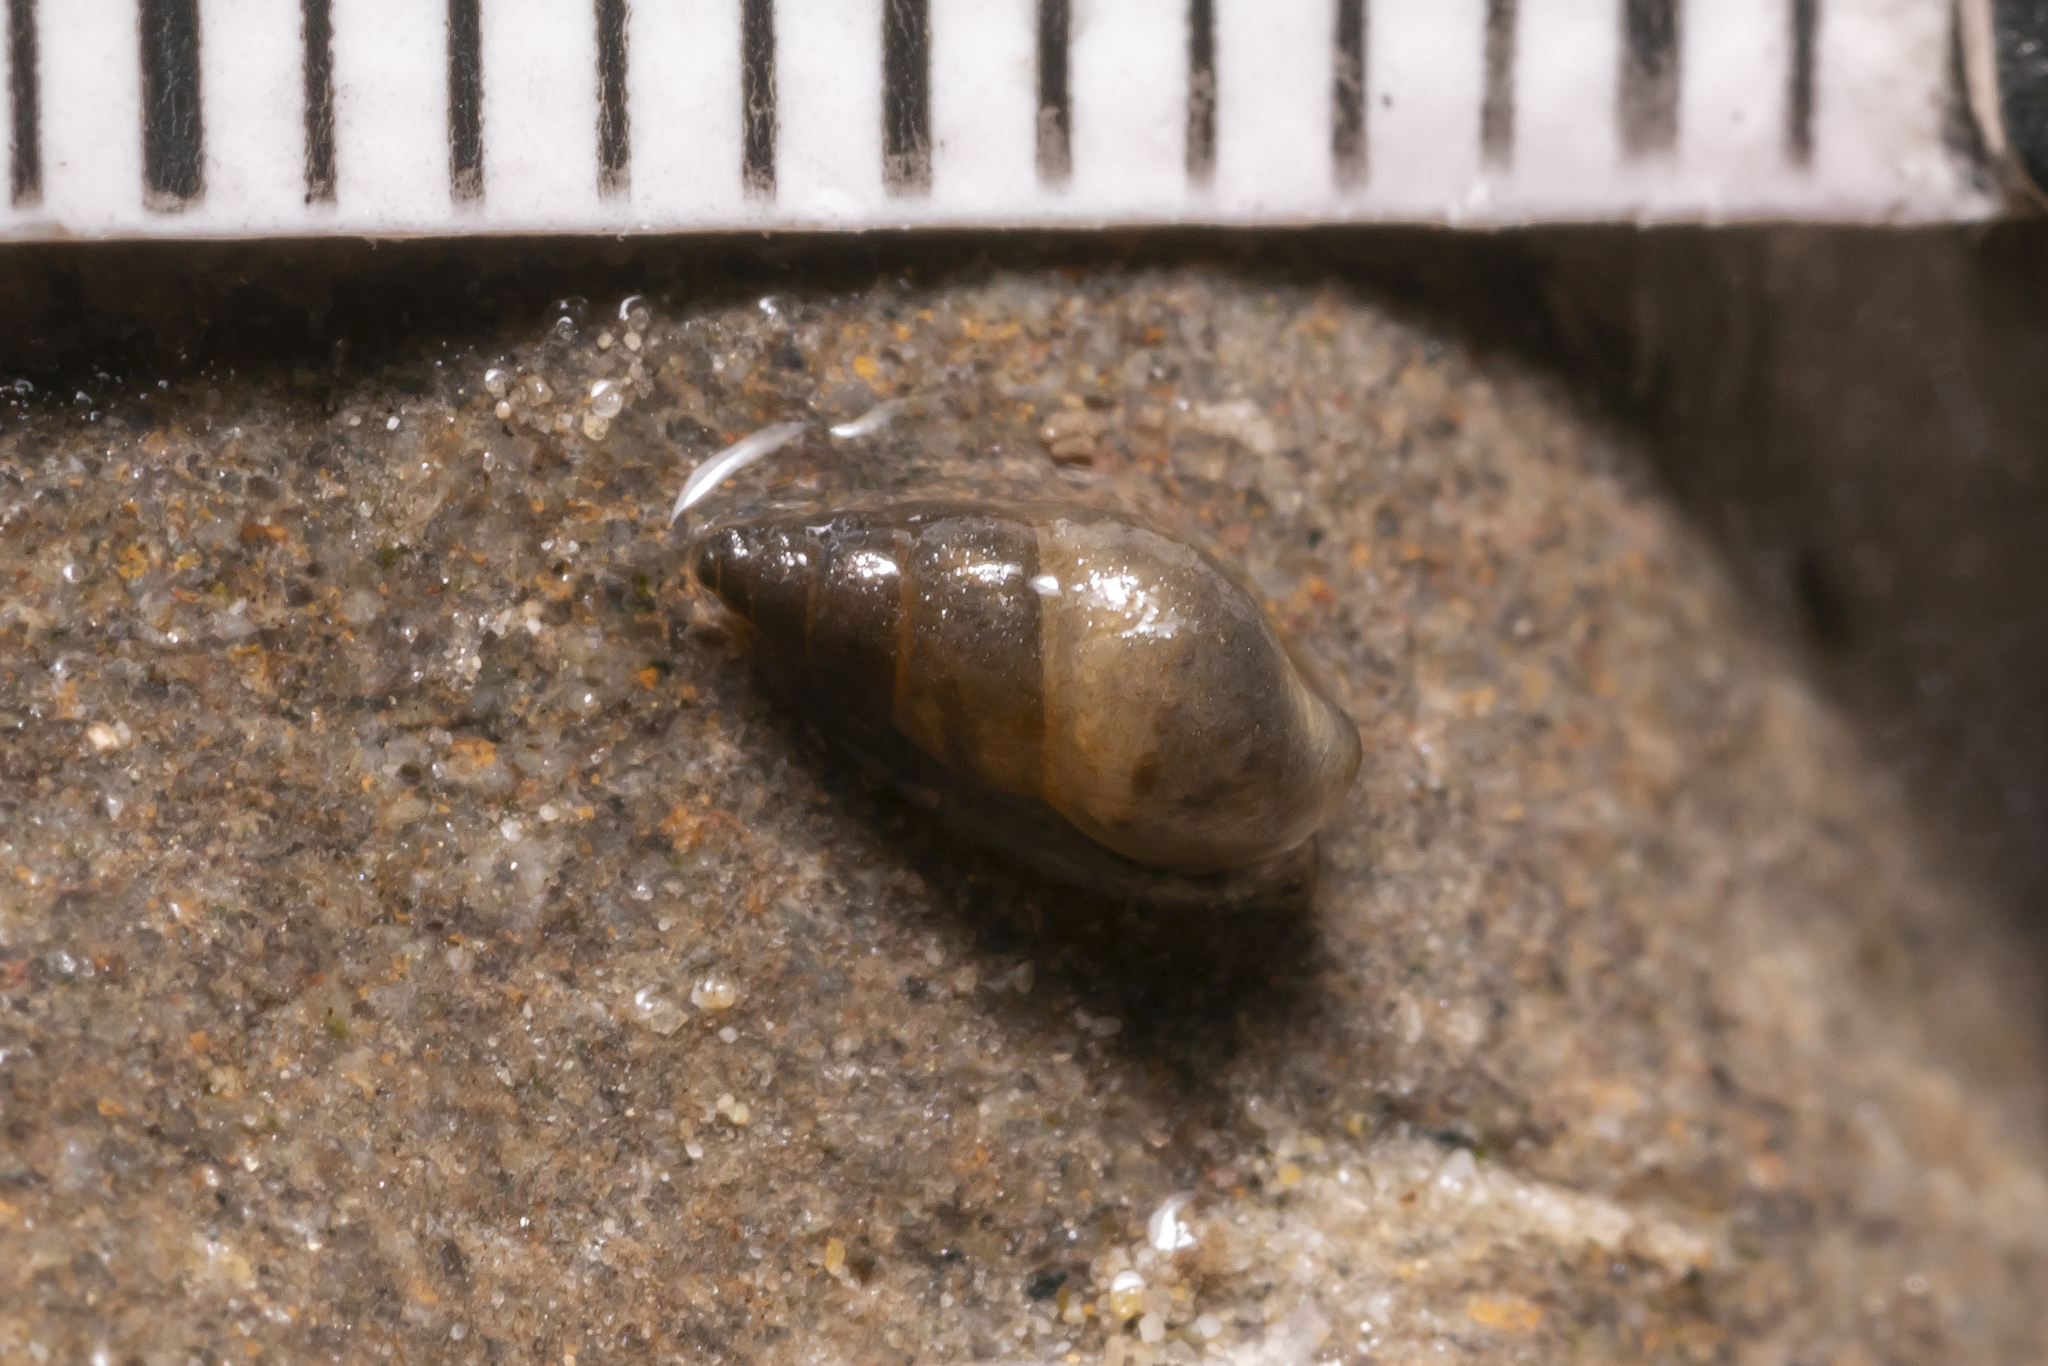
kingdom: Animalia
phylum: Mollusca
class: Gastropoda
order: Littorinimorpha
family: Tateidae
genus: Potamopyrgus
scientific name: Potamopyrgus antipodarum
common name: Jenkins' spire snail
